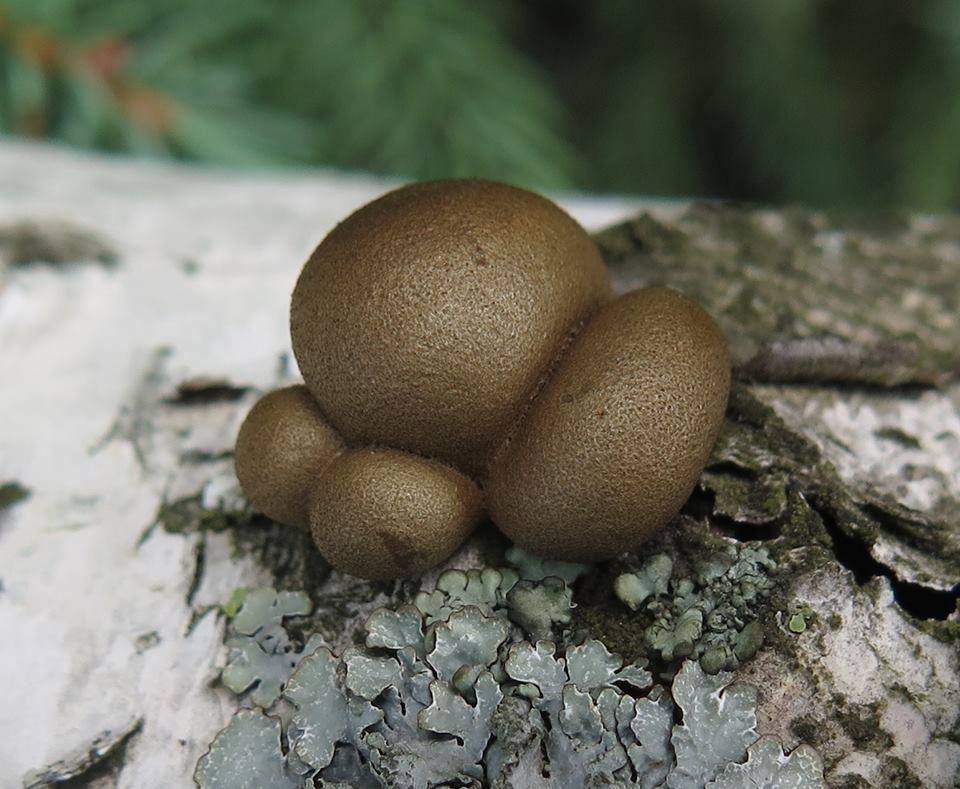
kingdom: Protozoa
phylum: Mycetozoa
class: Myxomycetes
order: Cribrariales
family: Tubiferaceae
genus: Lycogala
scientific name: Lycogala epidendrum
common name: Wolf's milk
